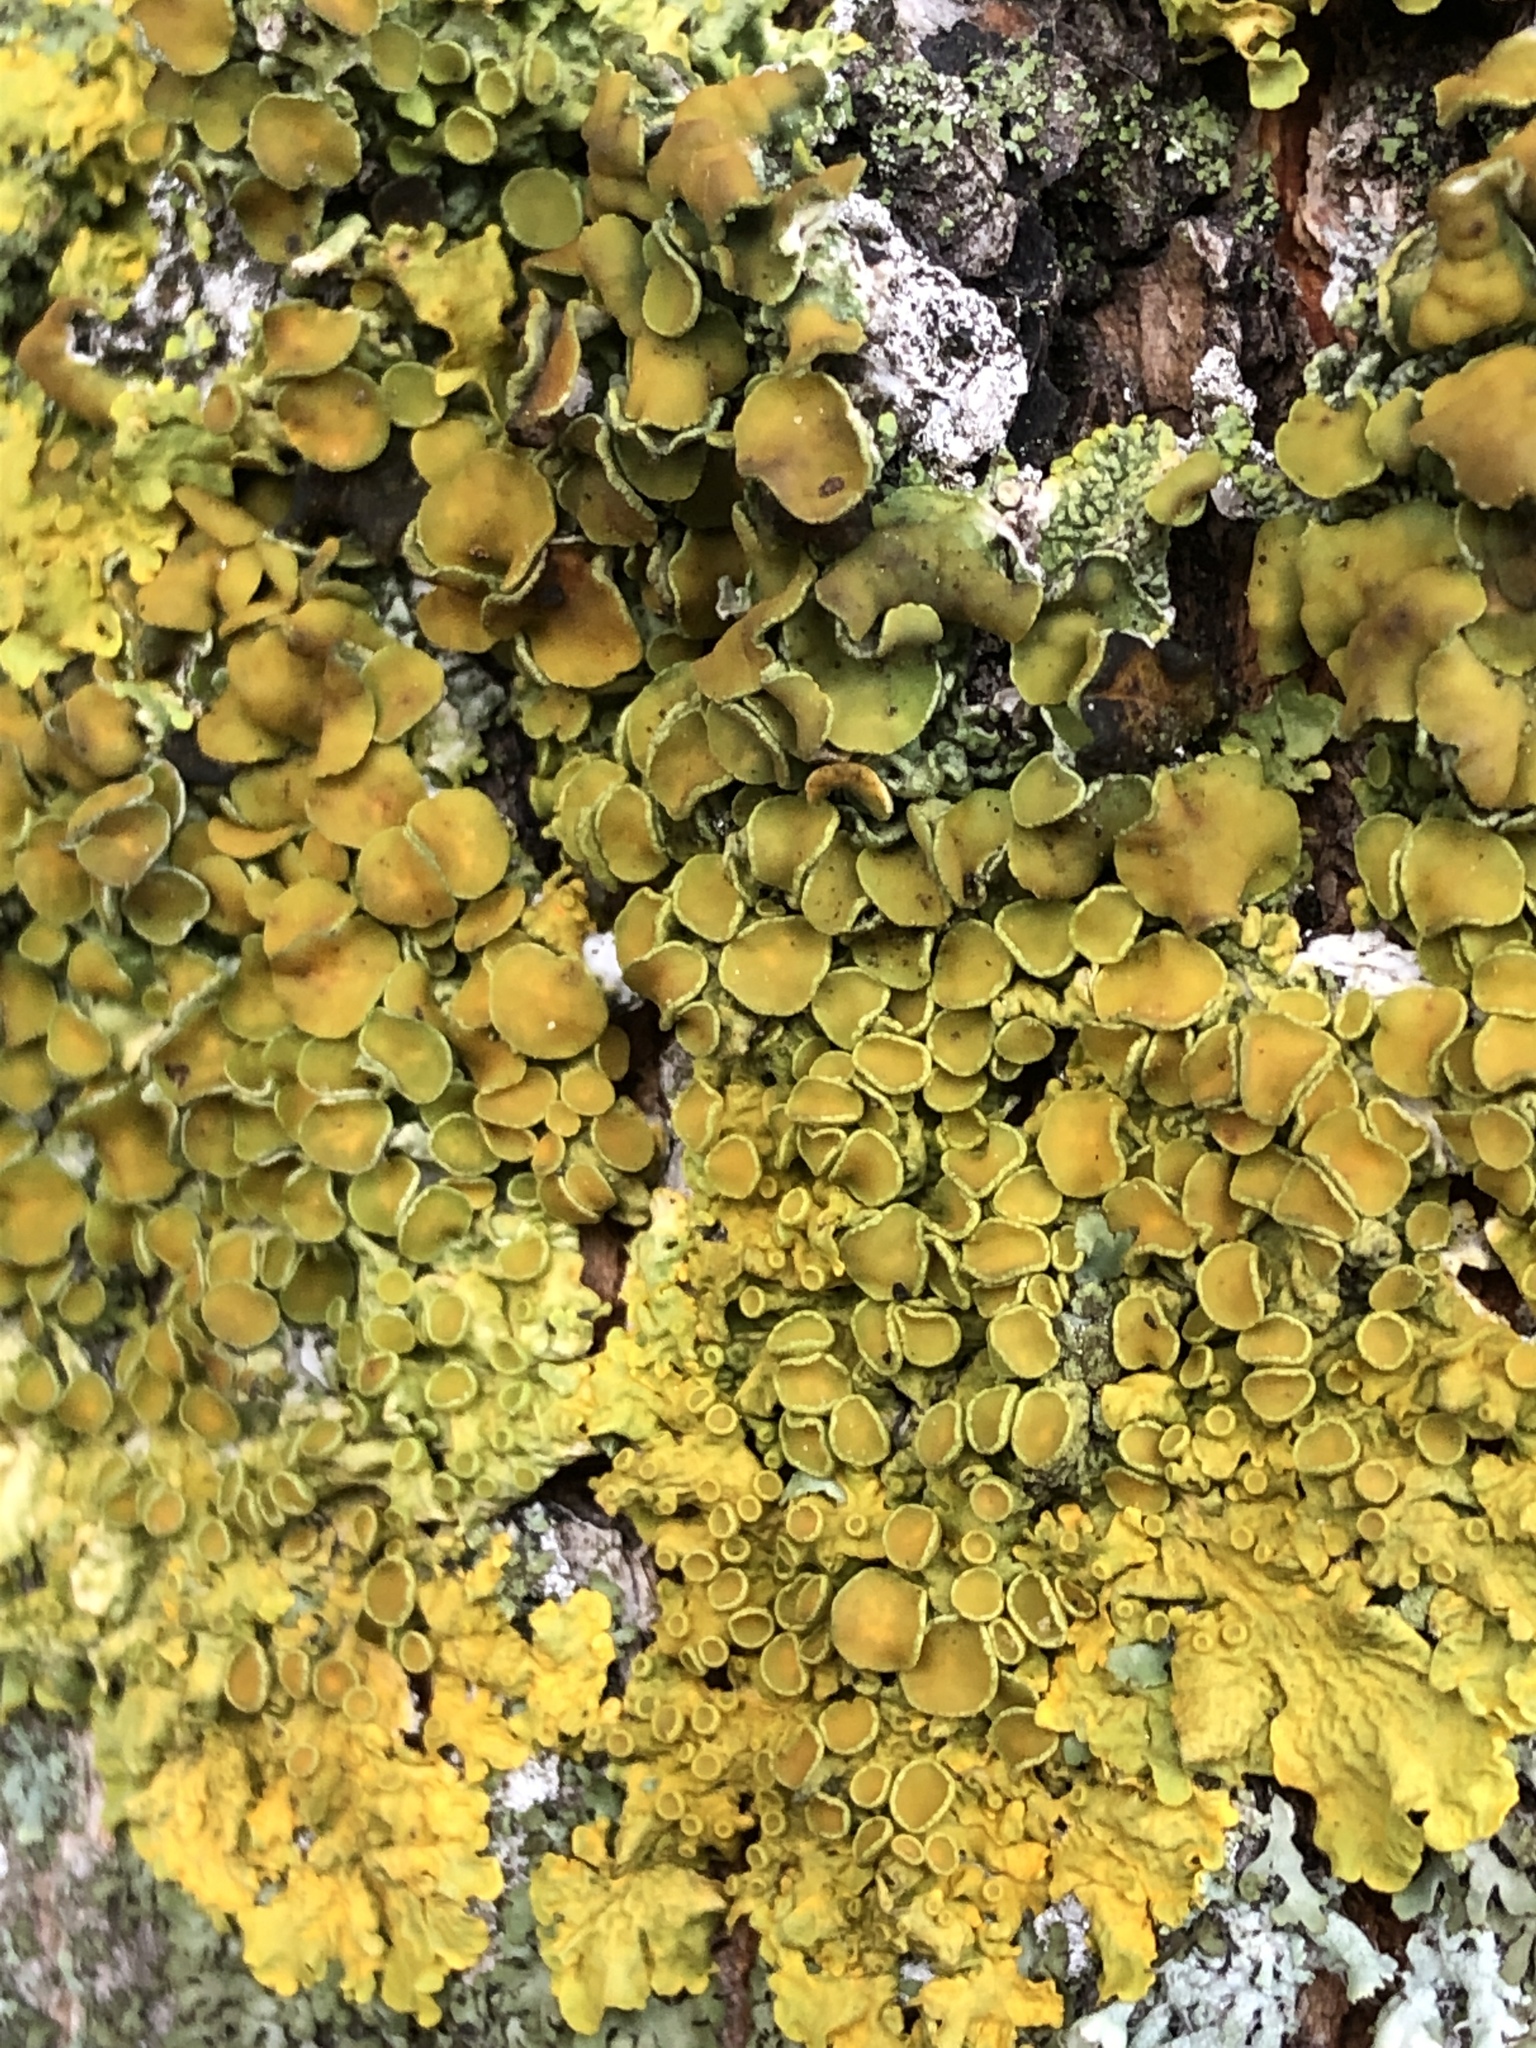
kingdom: Fungi
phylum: Ascomycota
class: Lecanoromycetes
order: Teloschistales
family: Teloschistaceae
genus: Xanthoria
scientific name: Xanthoria parietina
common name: Common orange lichen
